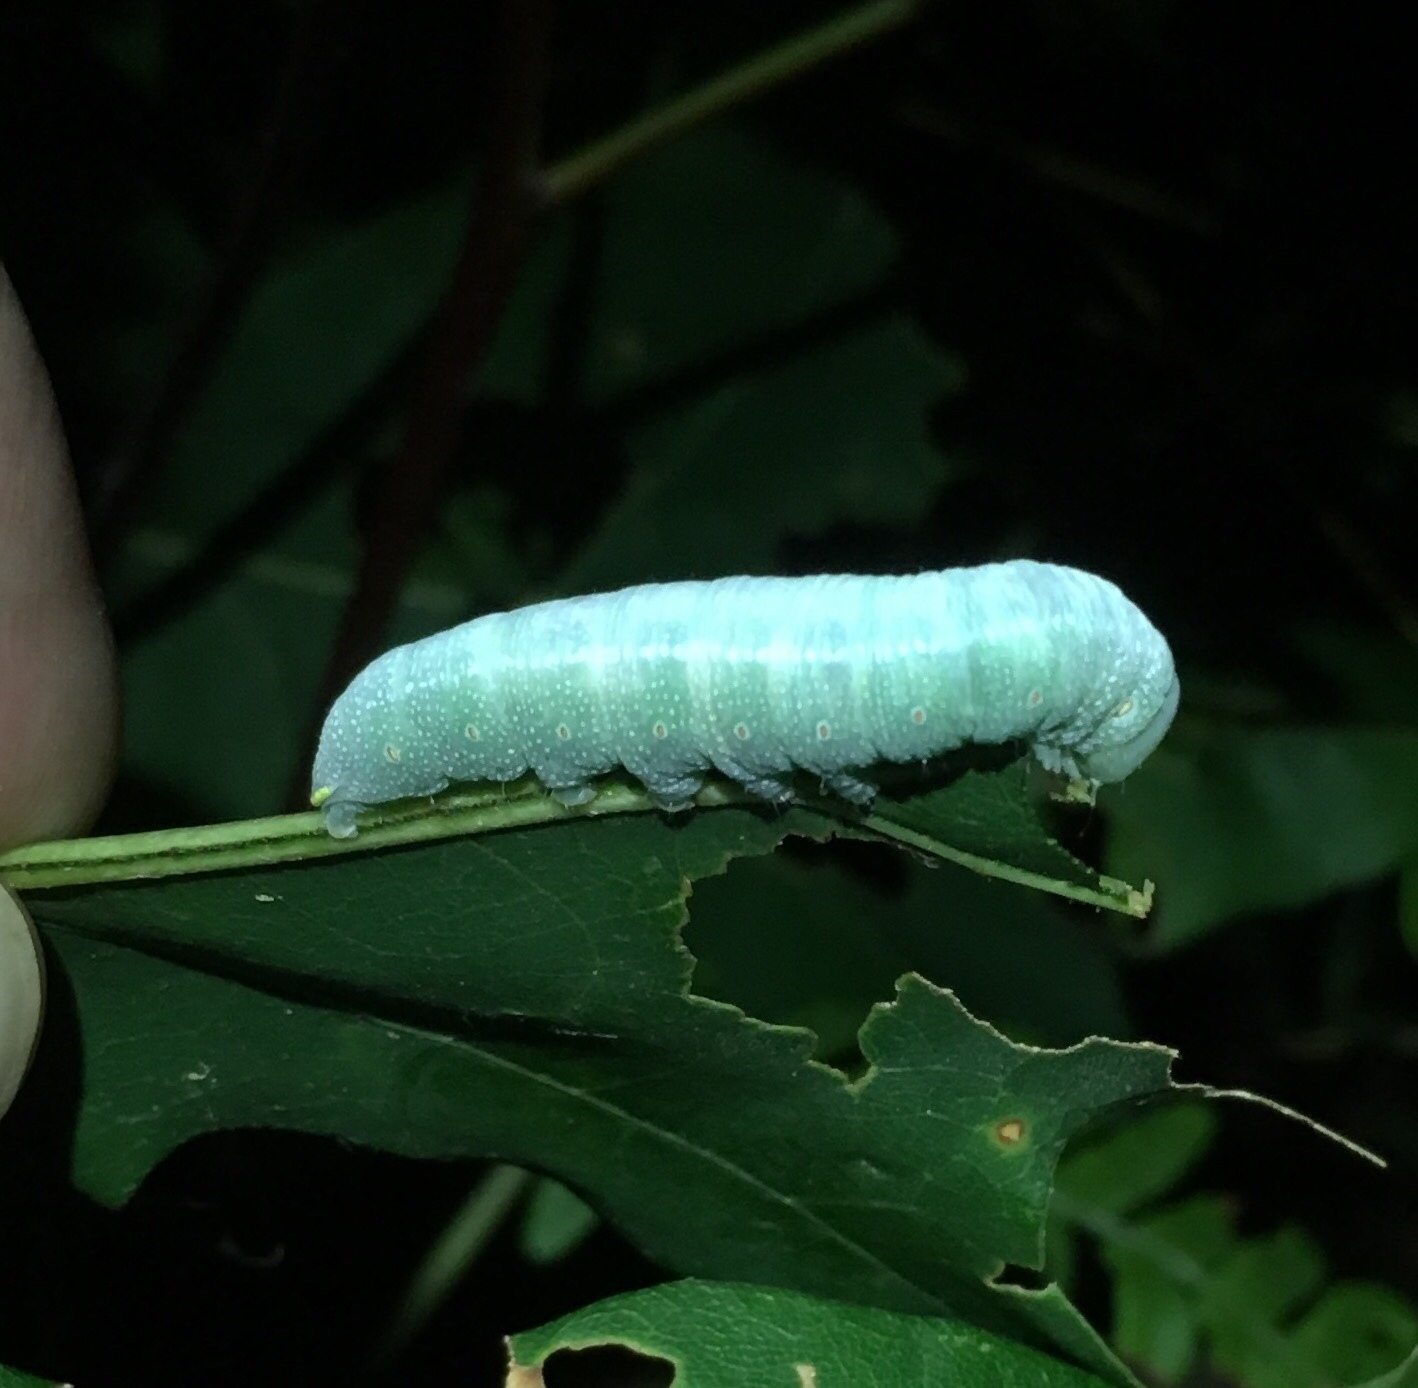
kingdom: Animalia
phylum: Arthropoda
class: Insecta
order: Lepidoptera
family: Notodontidae
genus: Nadata
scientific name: Nadata gibbosa
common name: White-dotted prominent
